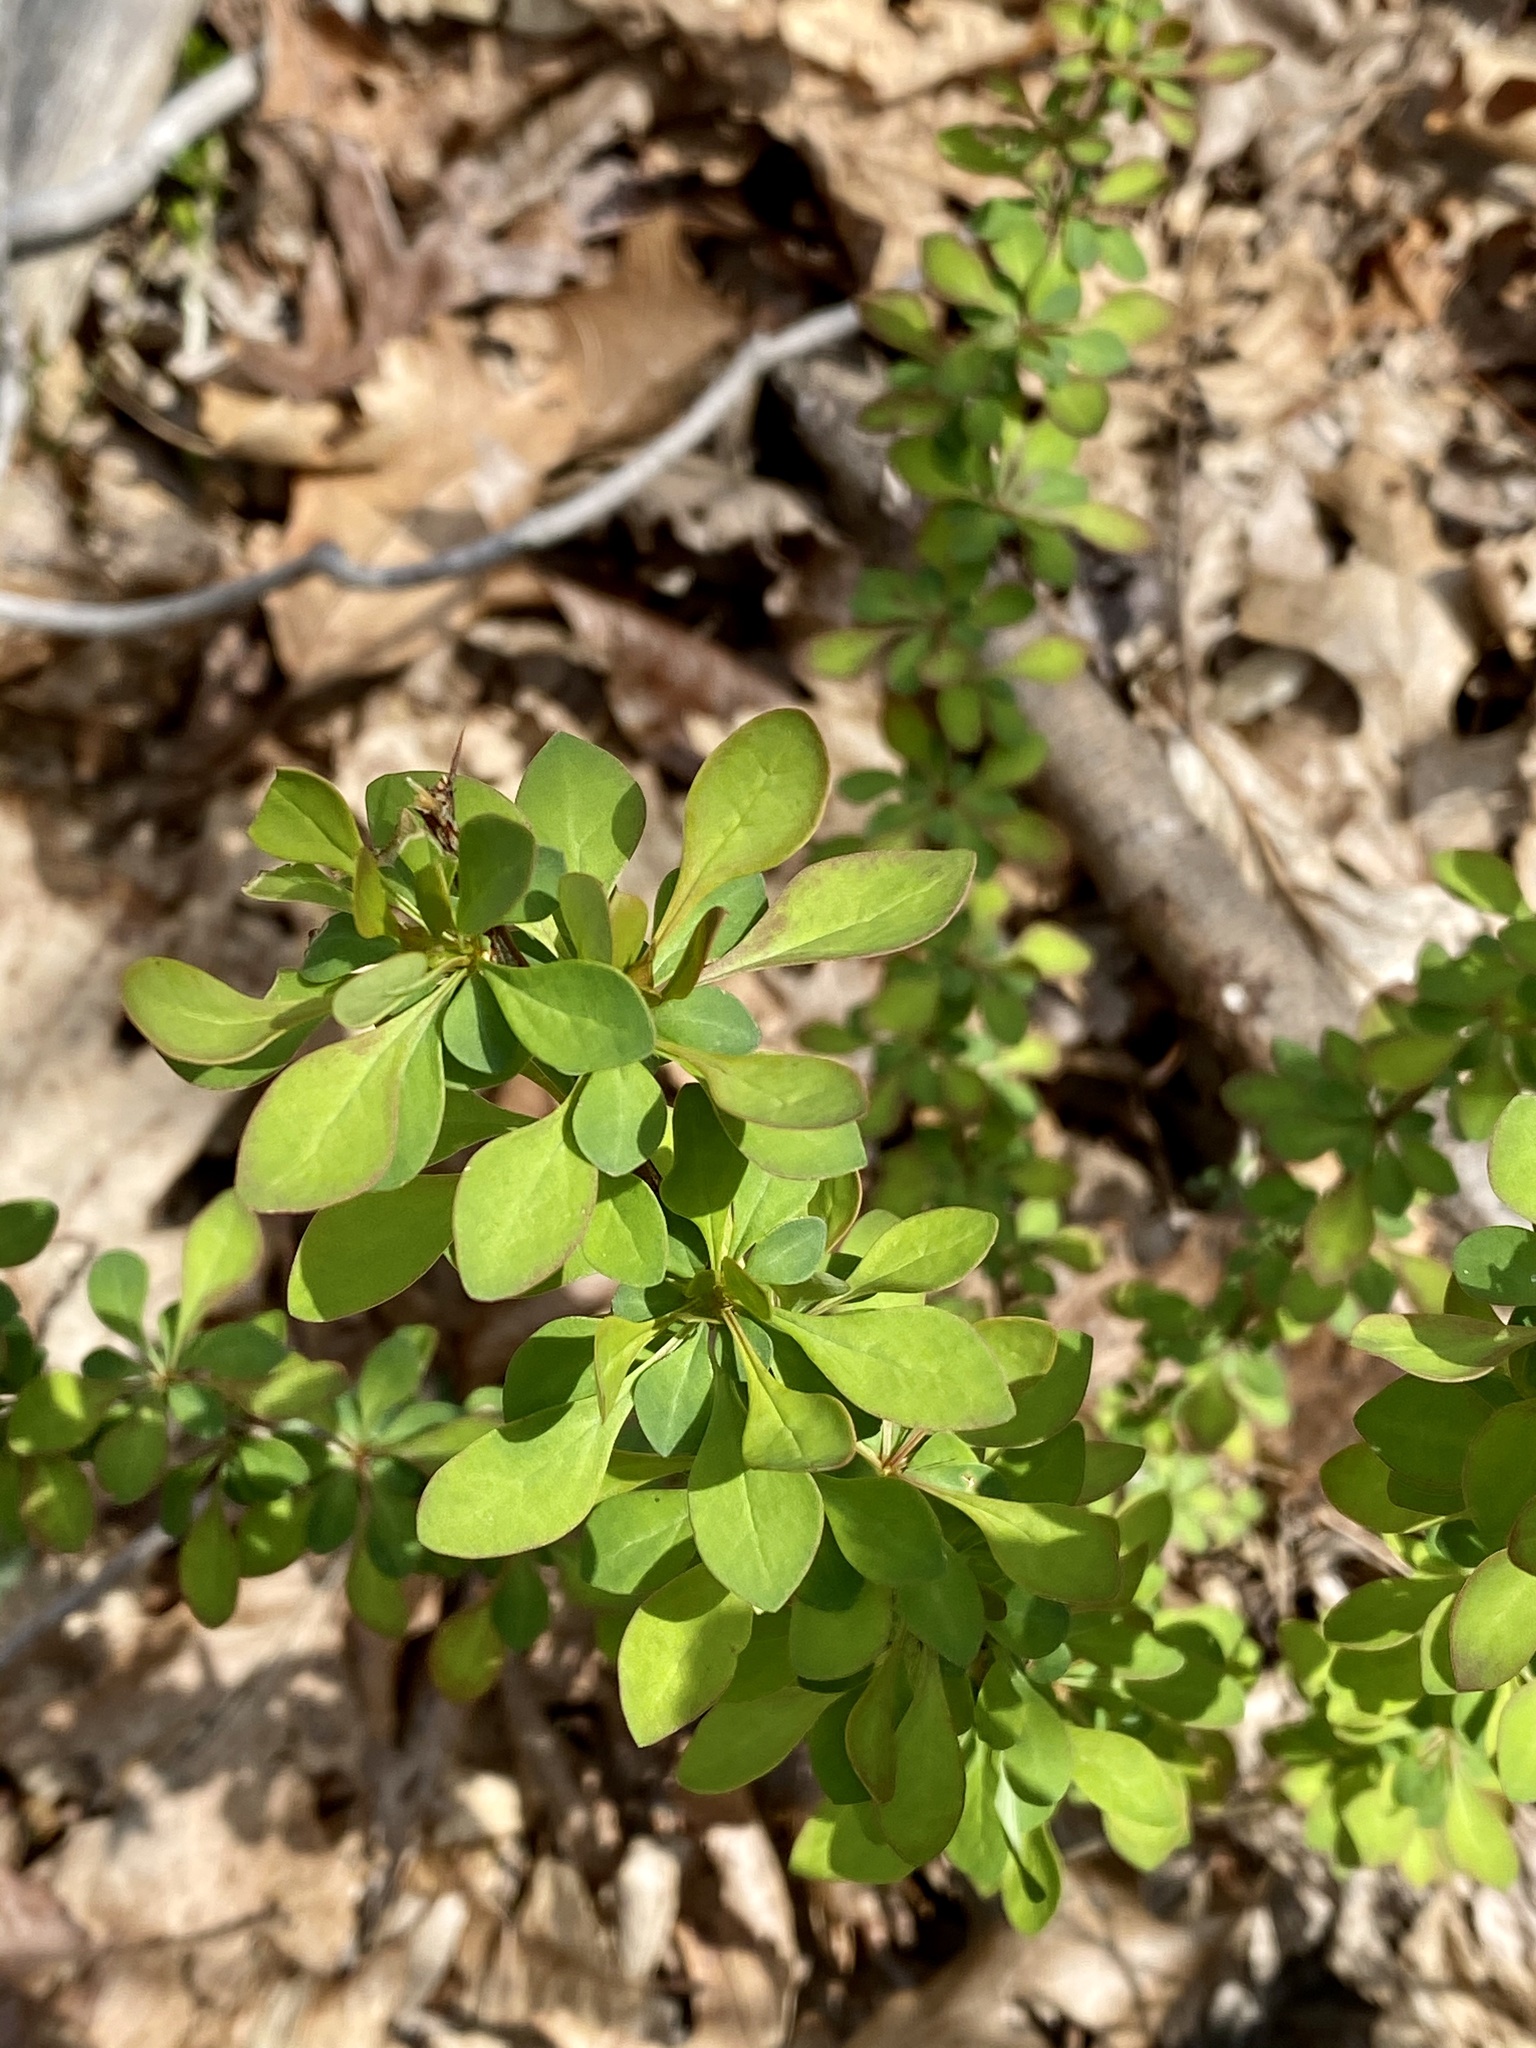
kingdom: Plantae
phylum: Tracheophyta
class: Magnoliopsida
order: Ranunculales
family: Berberidaceae
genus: Berberis
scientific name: Berberis thunbergii
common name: Japanese barberry
